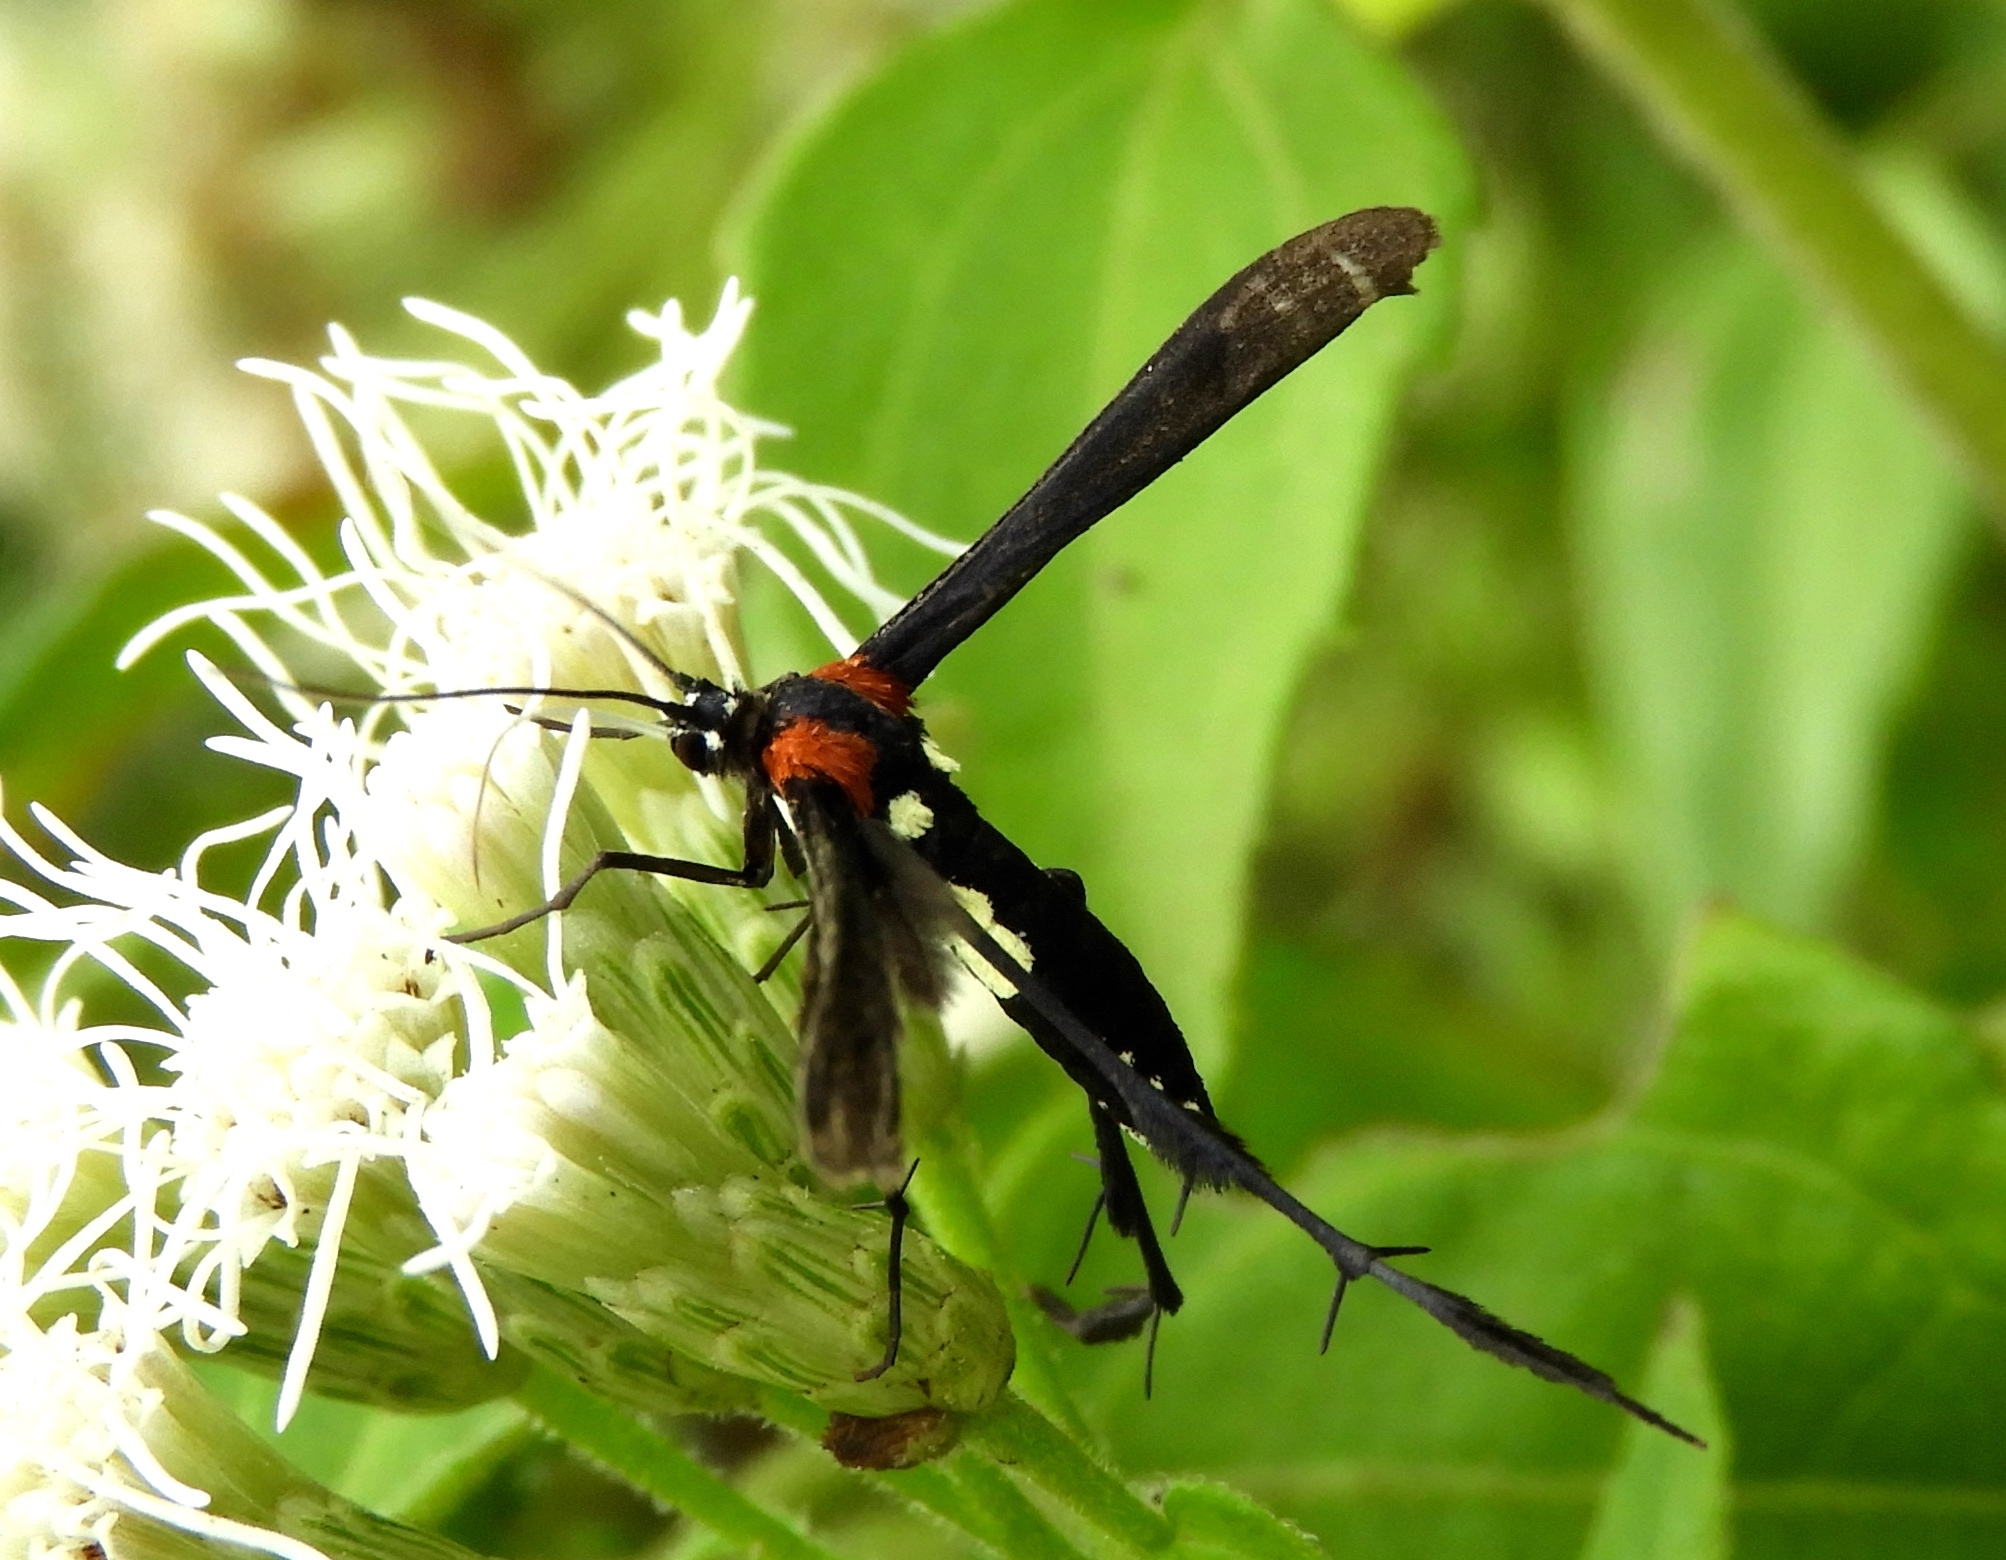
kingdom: Animalia
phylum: Arthropoda
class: Insecta
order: Lepidoptera
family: Pterophoridae
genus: Hellinsia
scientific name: Hellinsia chamelai
